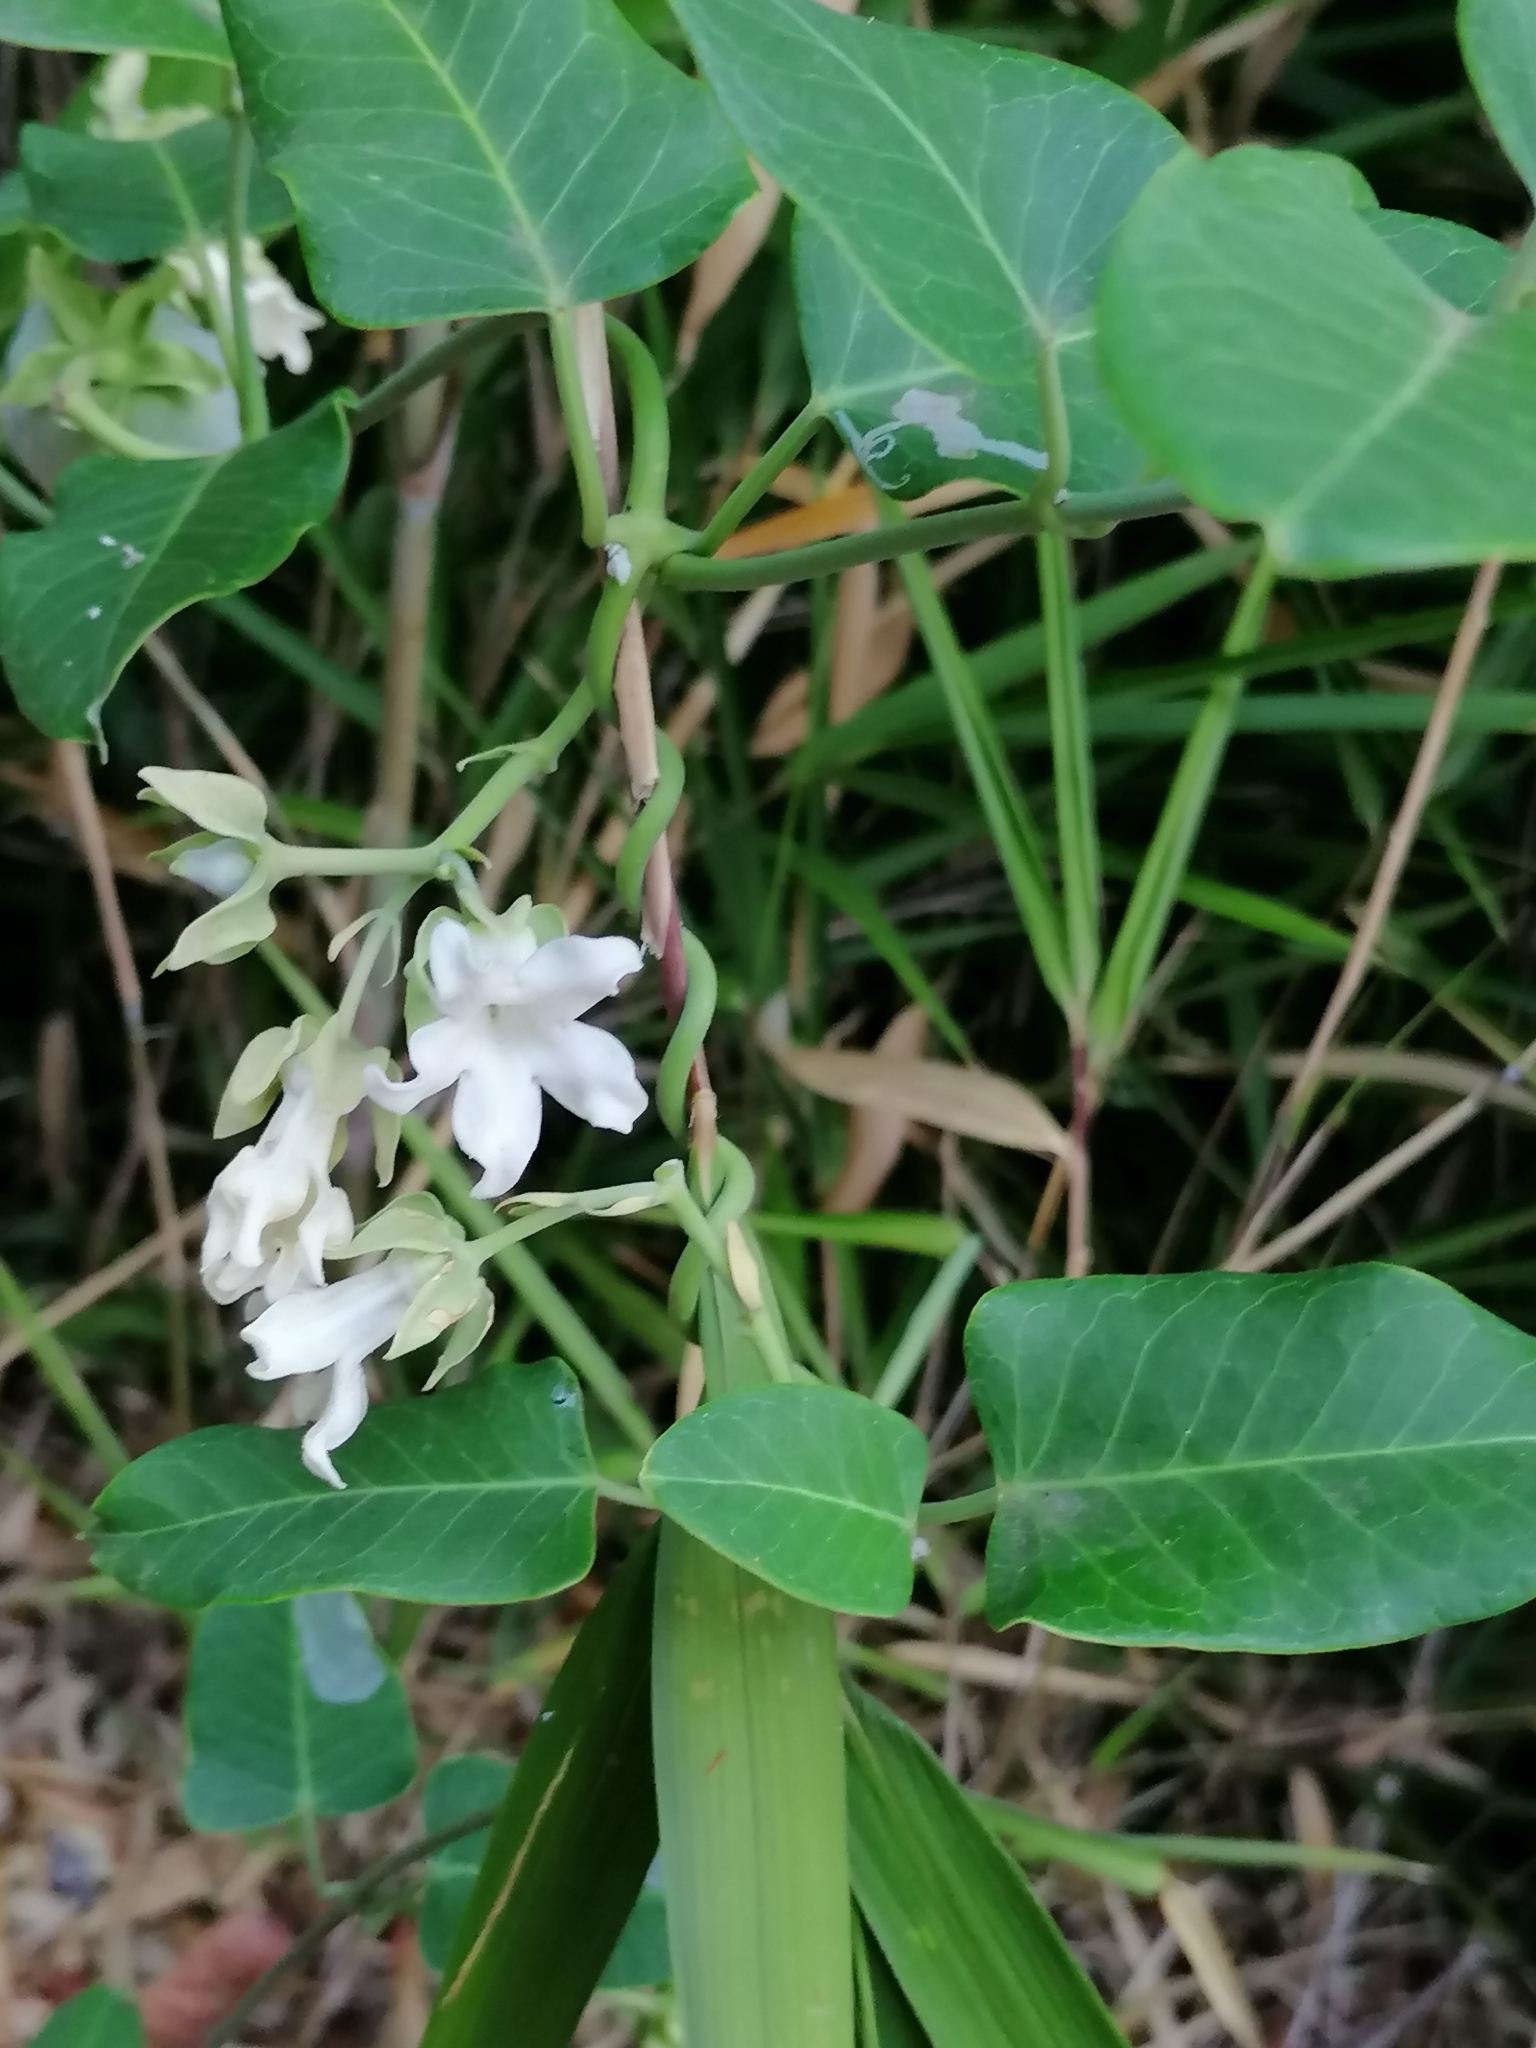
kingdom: Plantae
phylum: Tracheophyta
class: Magnoliopsida
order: Gentianales
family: Apocynaceae
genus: Araujia
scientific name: Araujia sericifera
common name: White bladderflower
